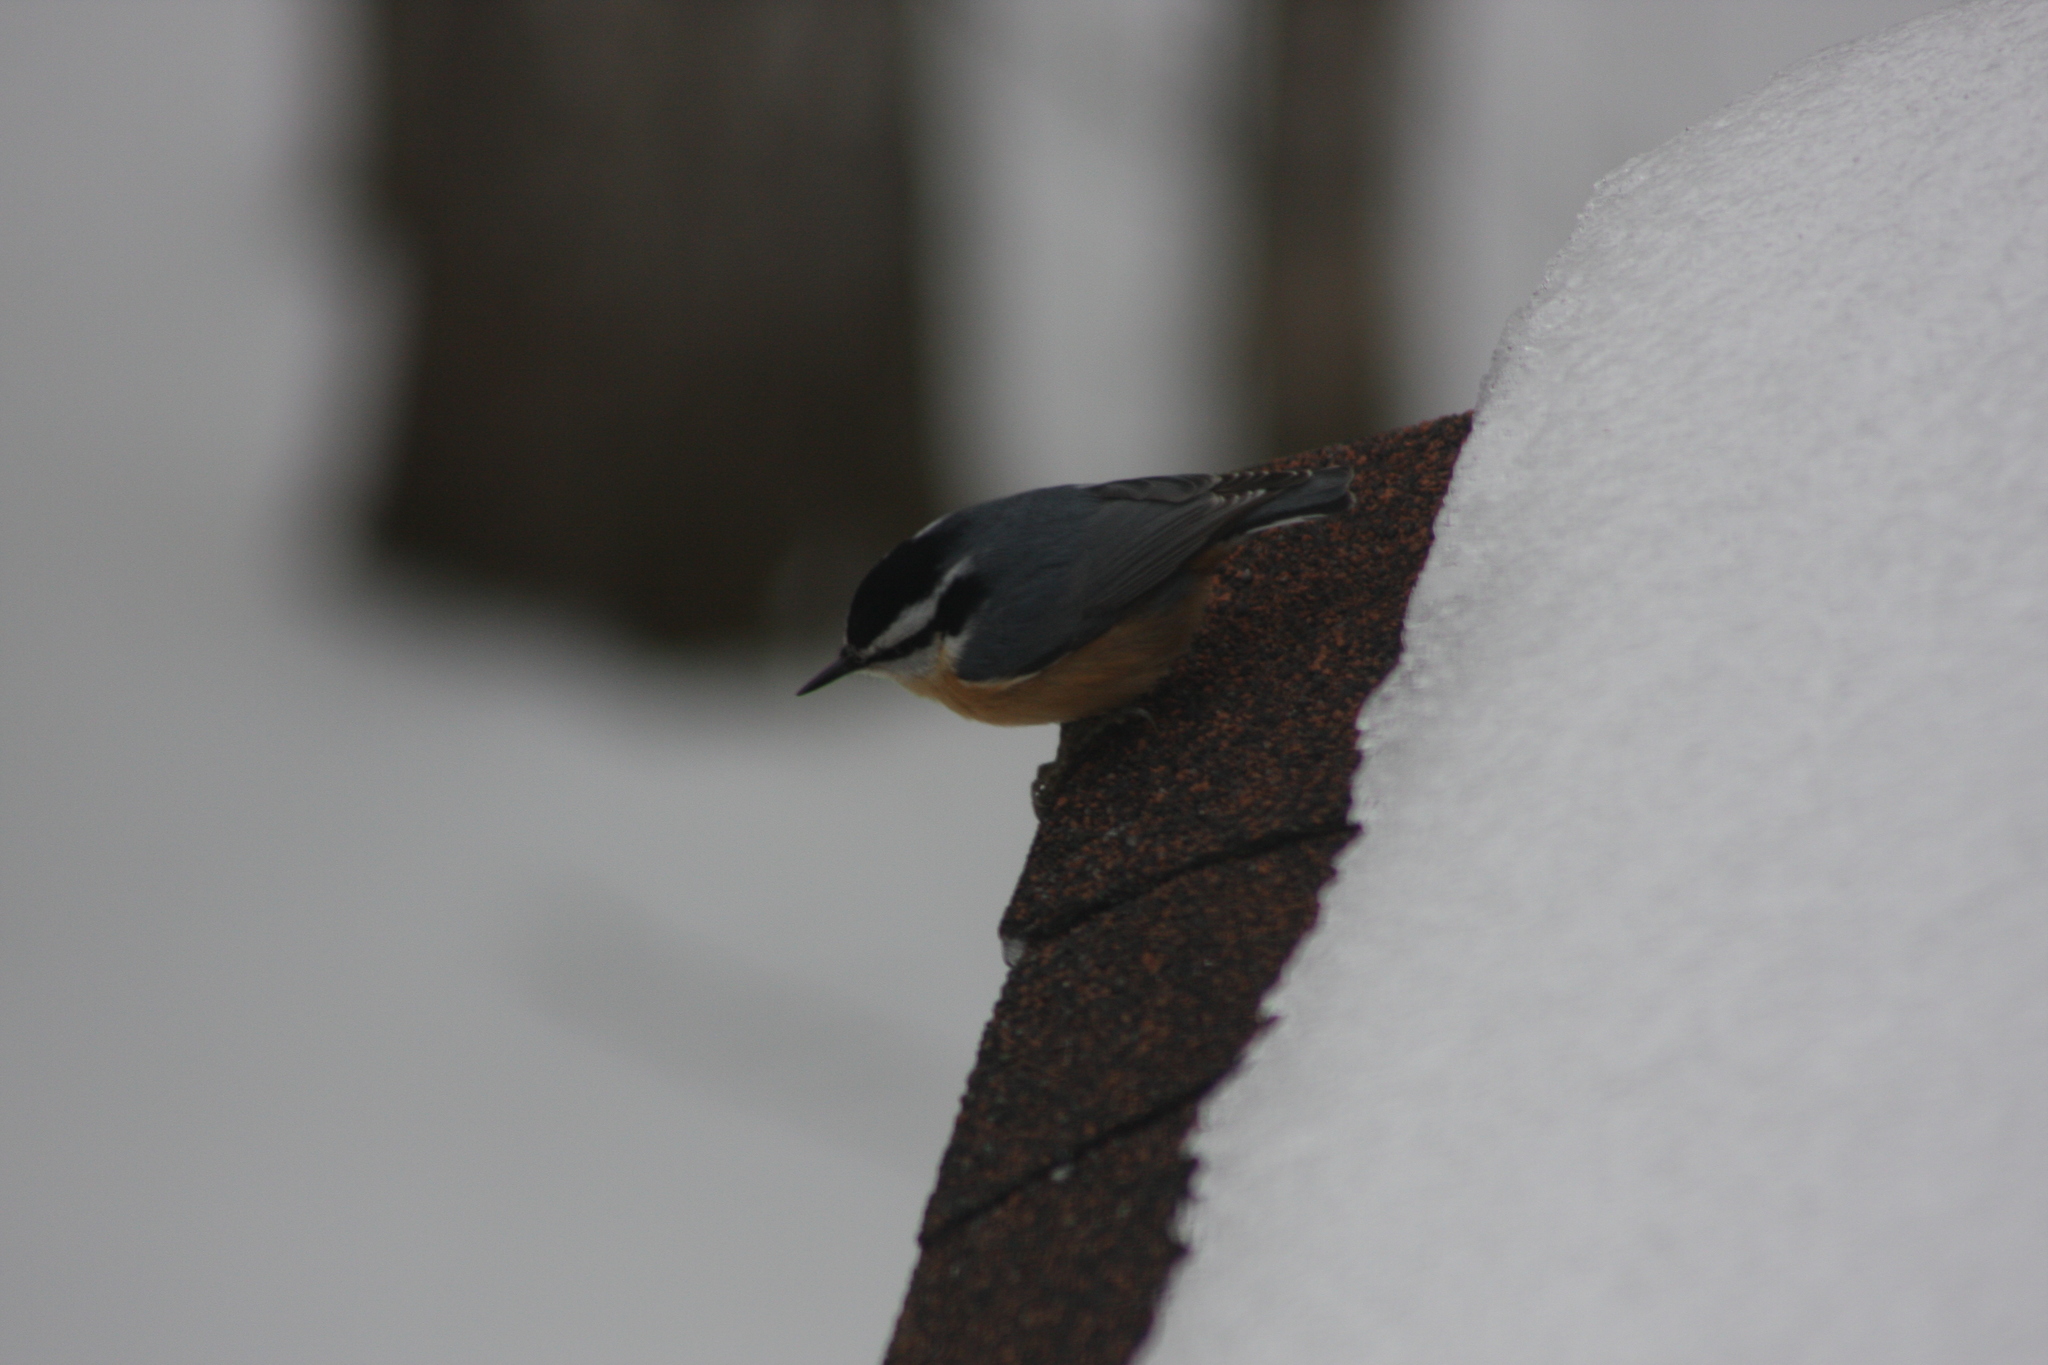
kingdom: Animalia
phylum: Chordata
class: Aves
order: Passeriformes
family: Sittidae
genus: Sitta
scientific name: Sitta canadensis
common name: Red-breasted nuthatch
